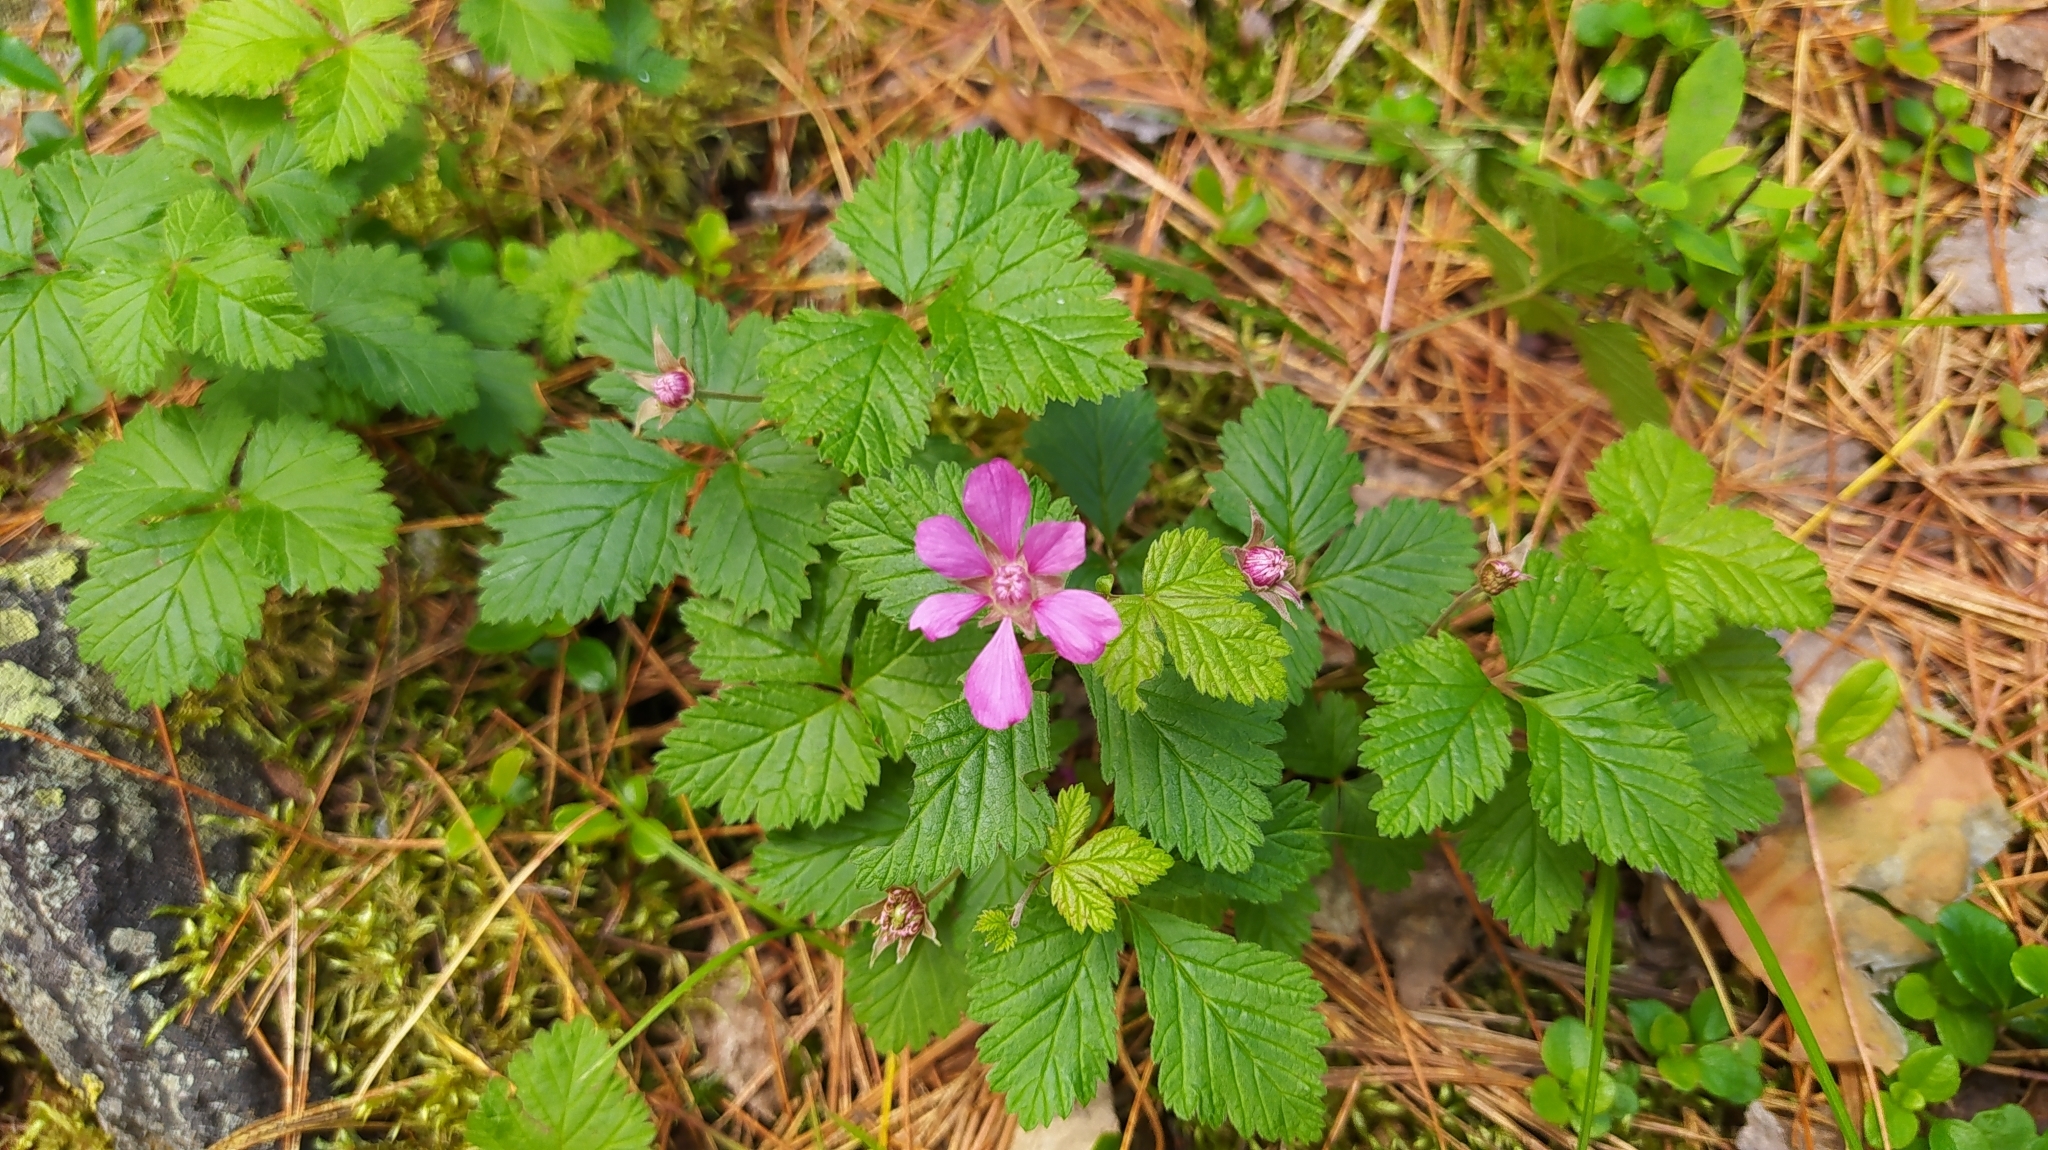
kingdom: Plantae
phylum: Tracheophyta
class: Magnoliopsida
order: Rosales
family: Rosaceae
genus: Rubus
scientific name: Rubus arcticus
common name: Arctic bramble
